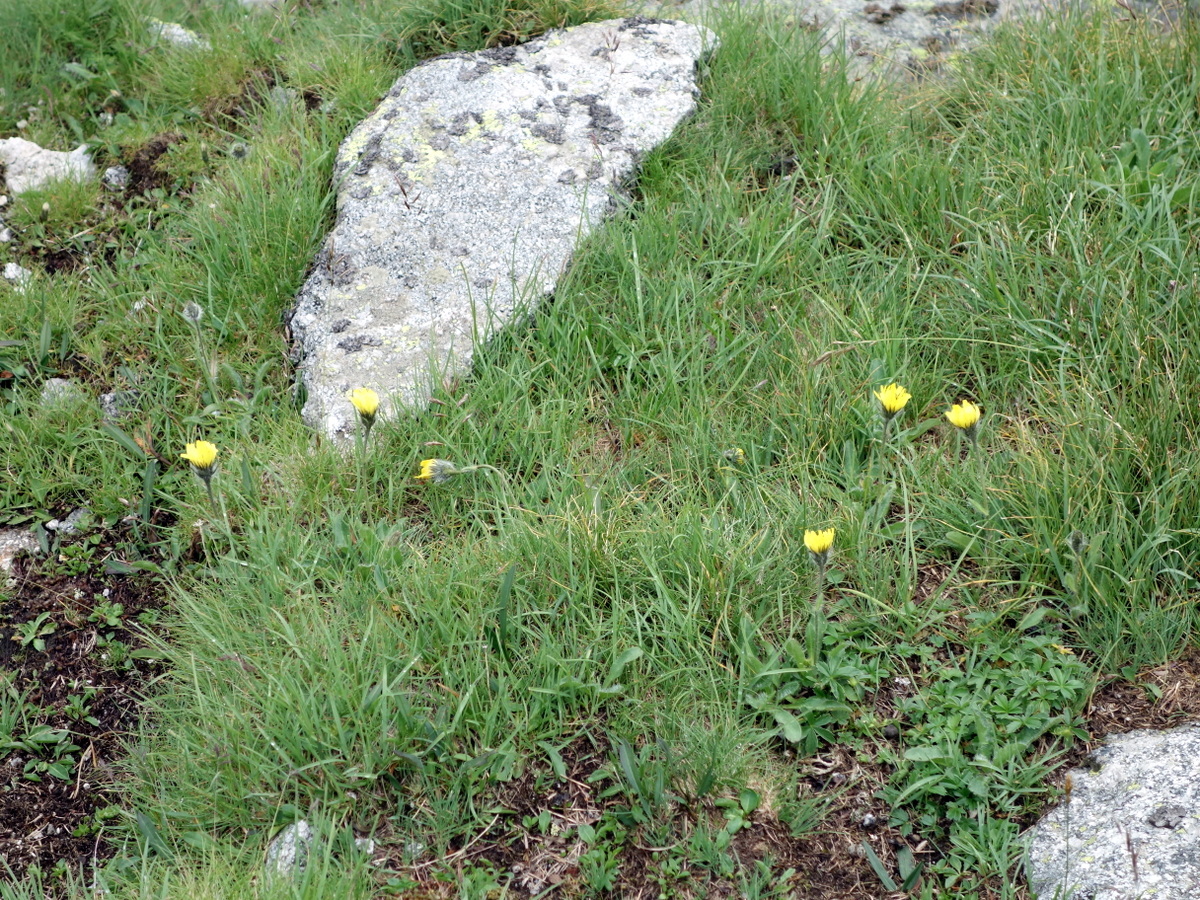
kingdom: Plantae
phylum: Tracheophyta
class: Magnoliopsida
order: Asterales
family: Asteraceae
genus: Hieracium
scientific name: Hieracium
